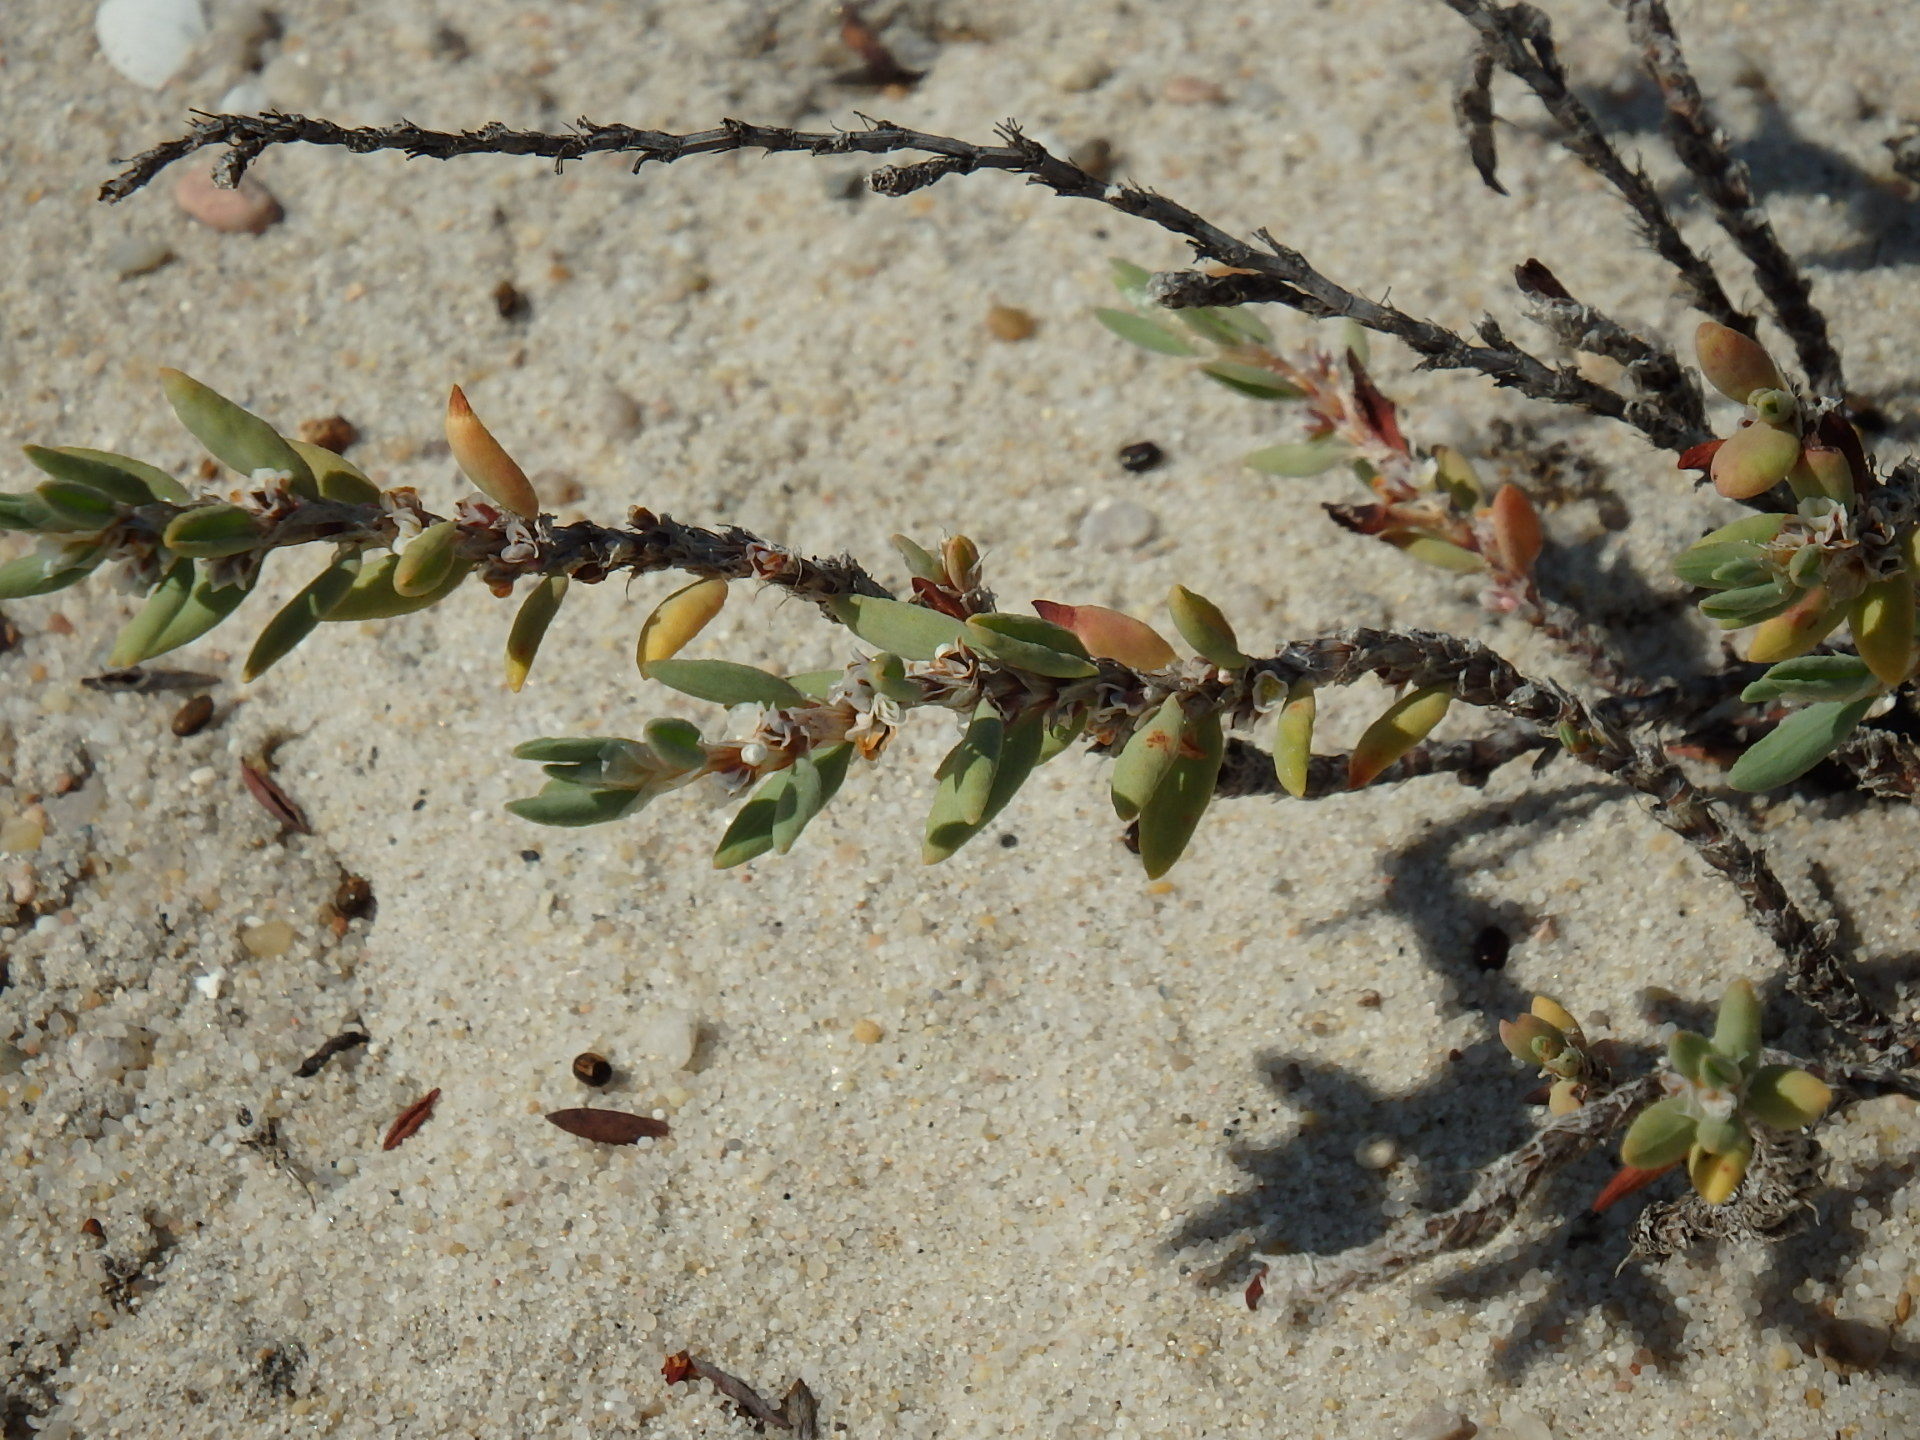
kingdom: Plantae
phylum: Tracheophyta
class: Magnoliopsida
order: Caryophyllales
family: Polygonaceae
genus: Polygonum
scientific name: Polygonum maritimum
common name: Sea knotgrass
